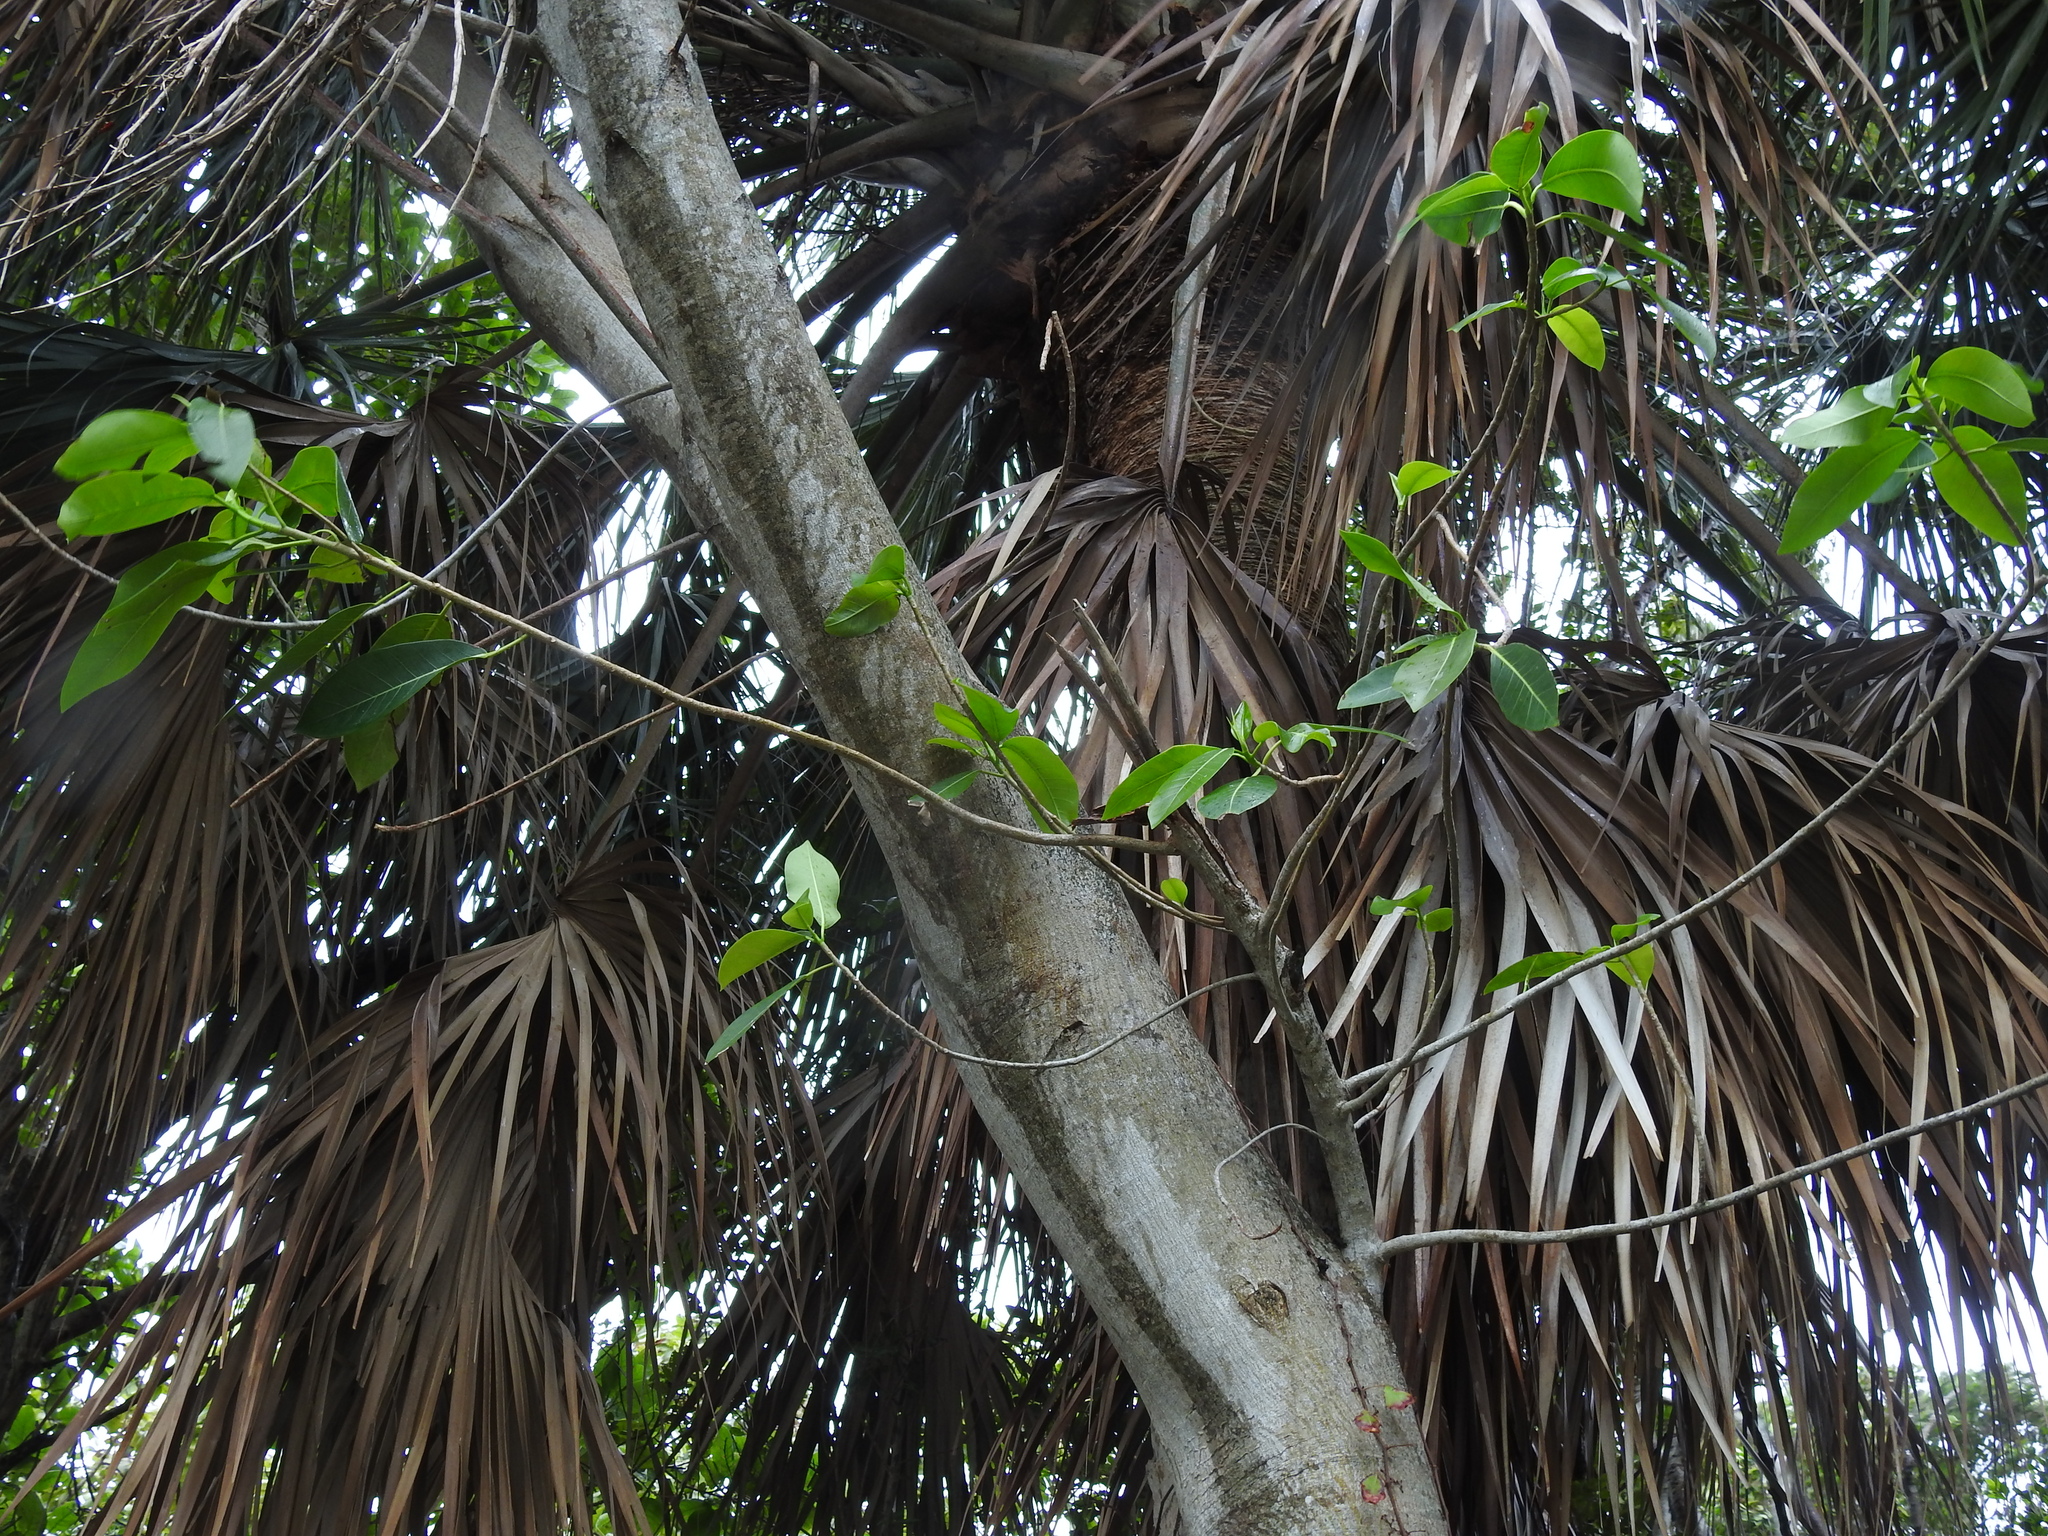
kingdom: Plantae
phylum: Tracheophyta
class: Magnoliopsida
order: Rosales
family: Moraceae
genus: Ficus
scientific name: Ficus aurea
